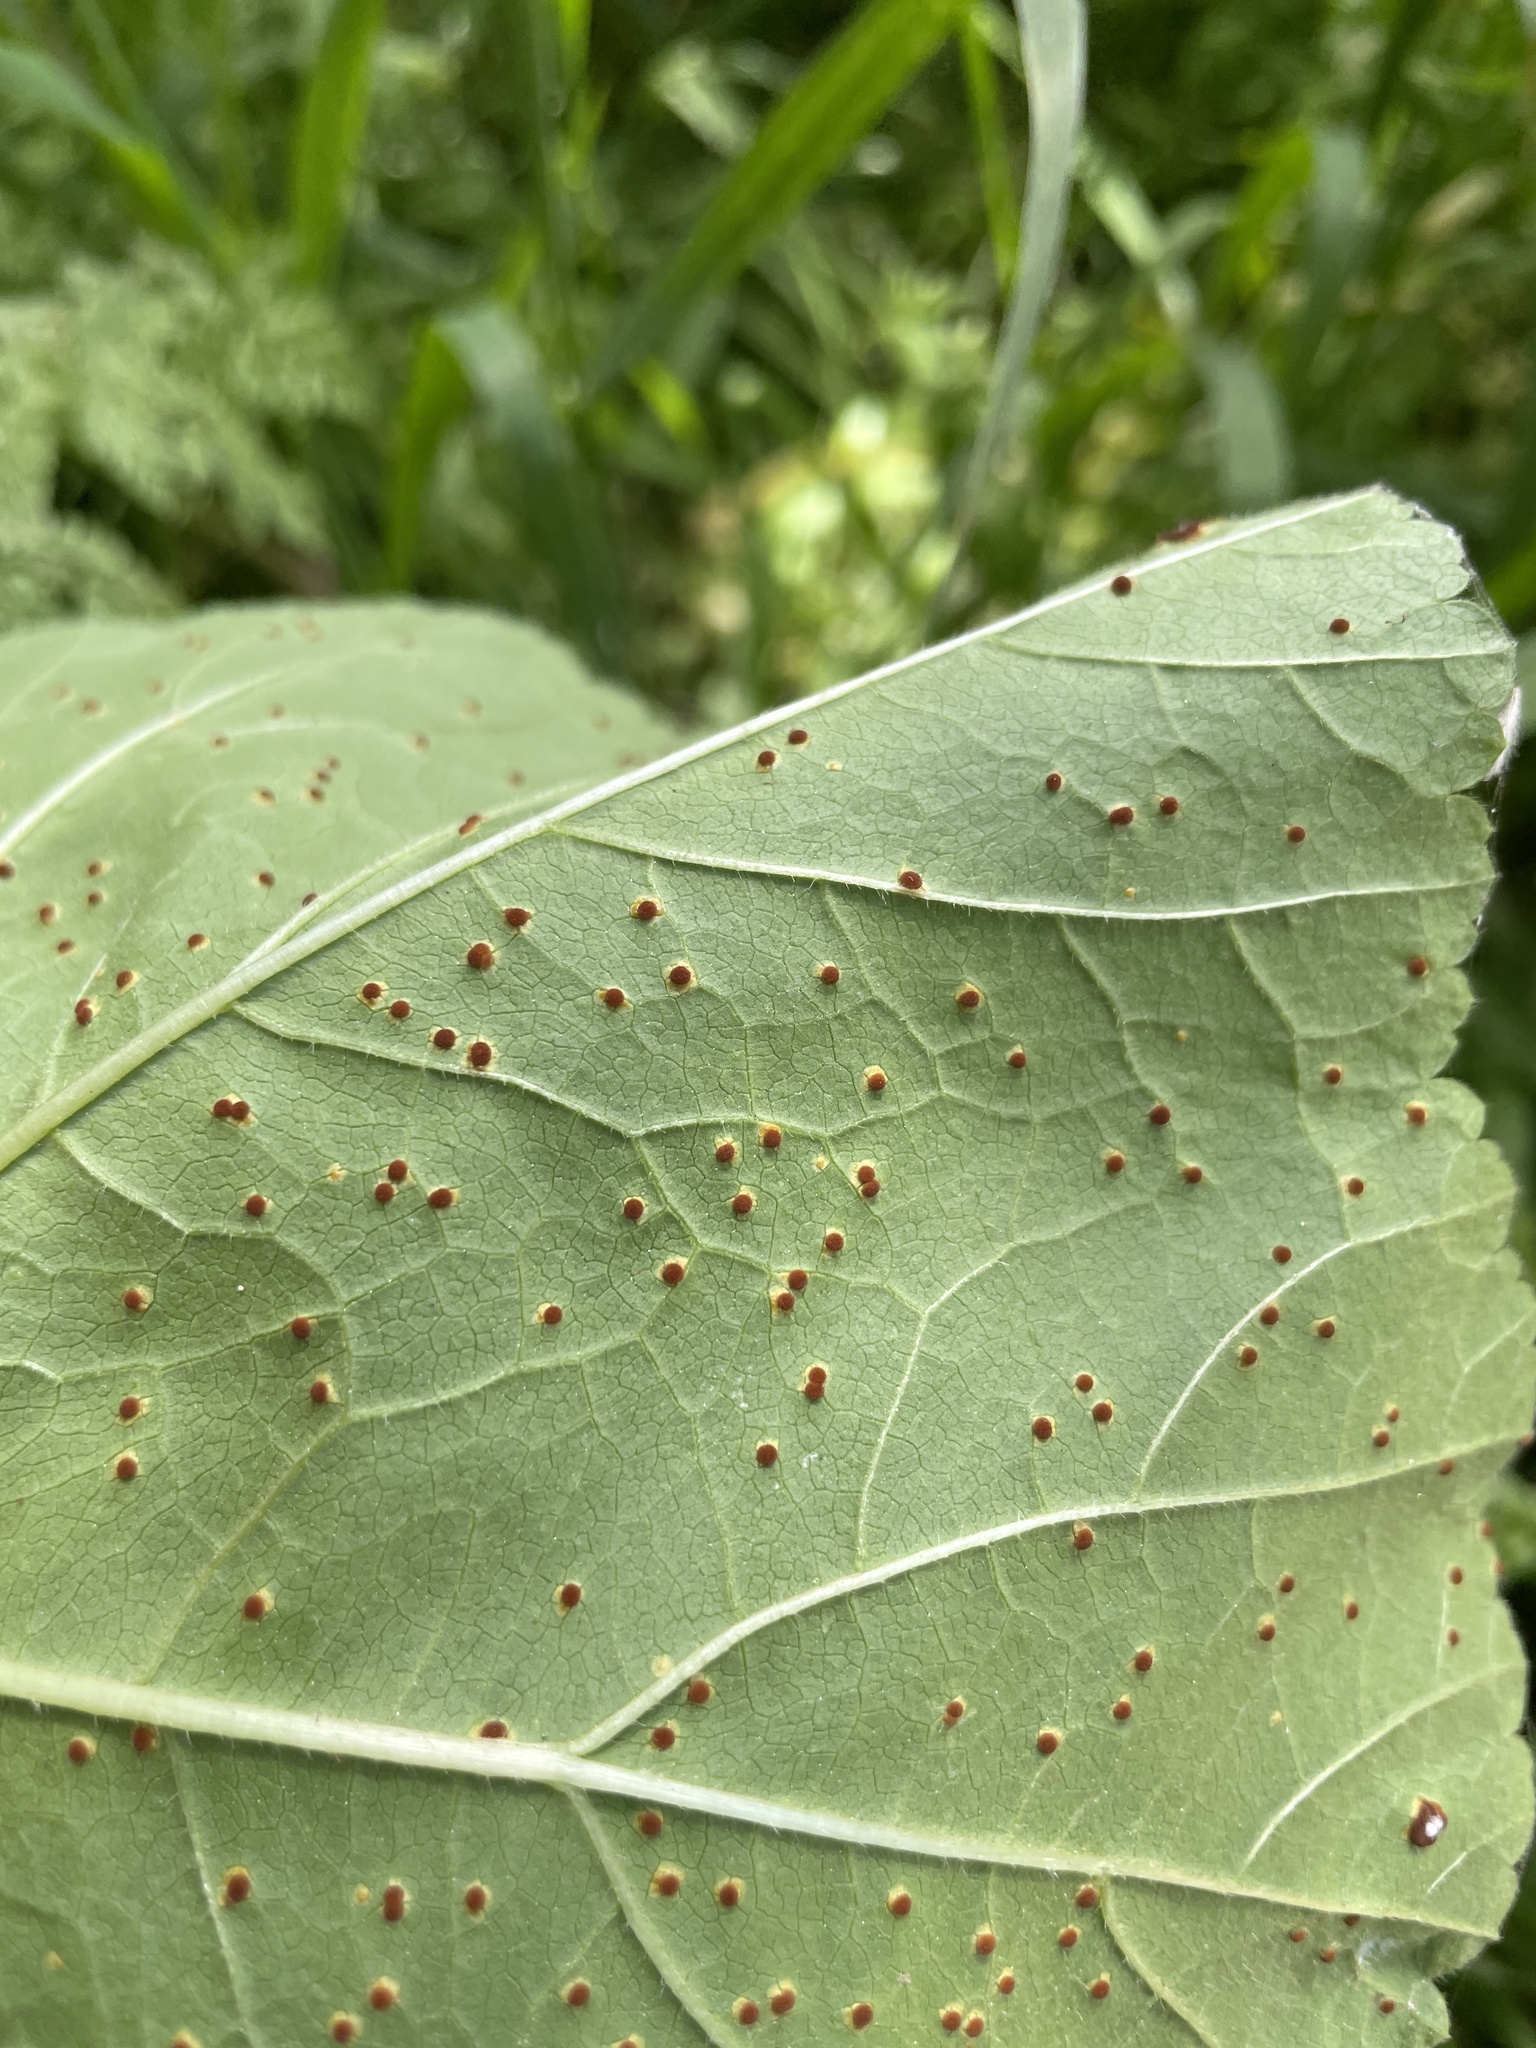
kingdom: Fungi
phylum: Basidiomycota
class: Pucciniomycetes
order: Pucciniales
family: Pucciniaceae
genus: Puccinia
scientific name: Puccinia malvacearum
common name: Hollyhock rust
